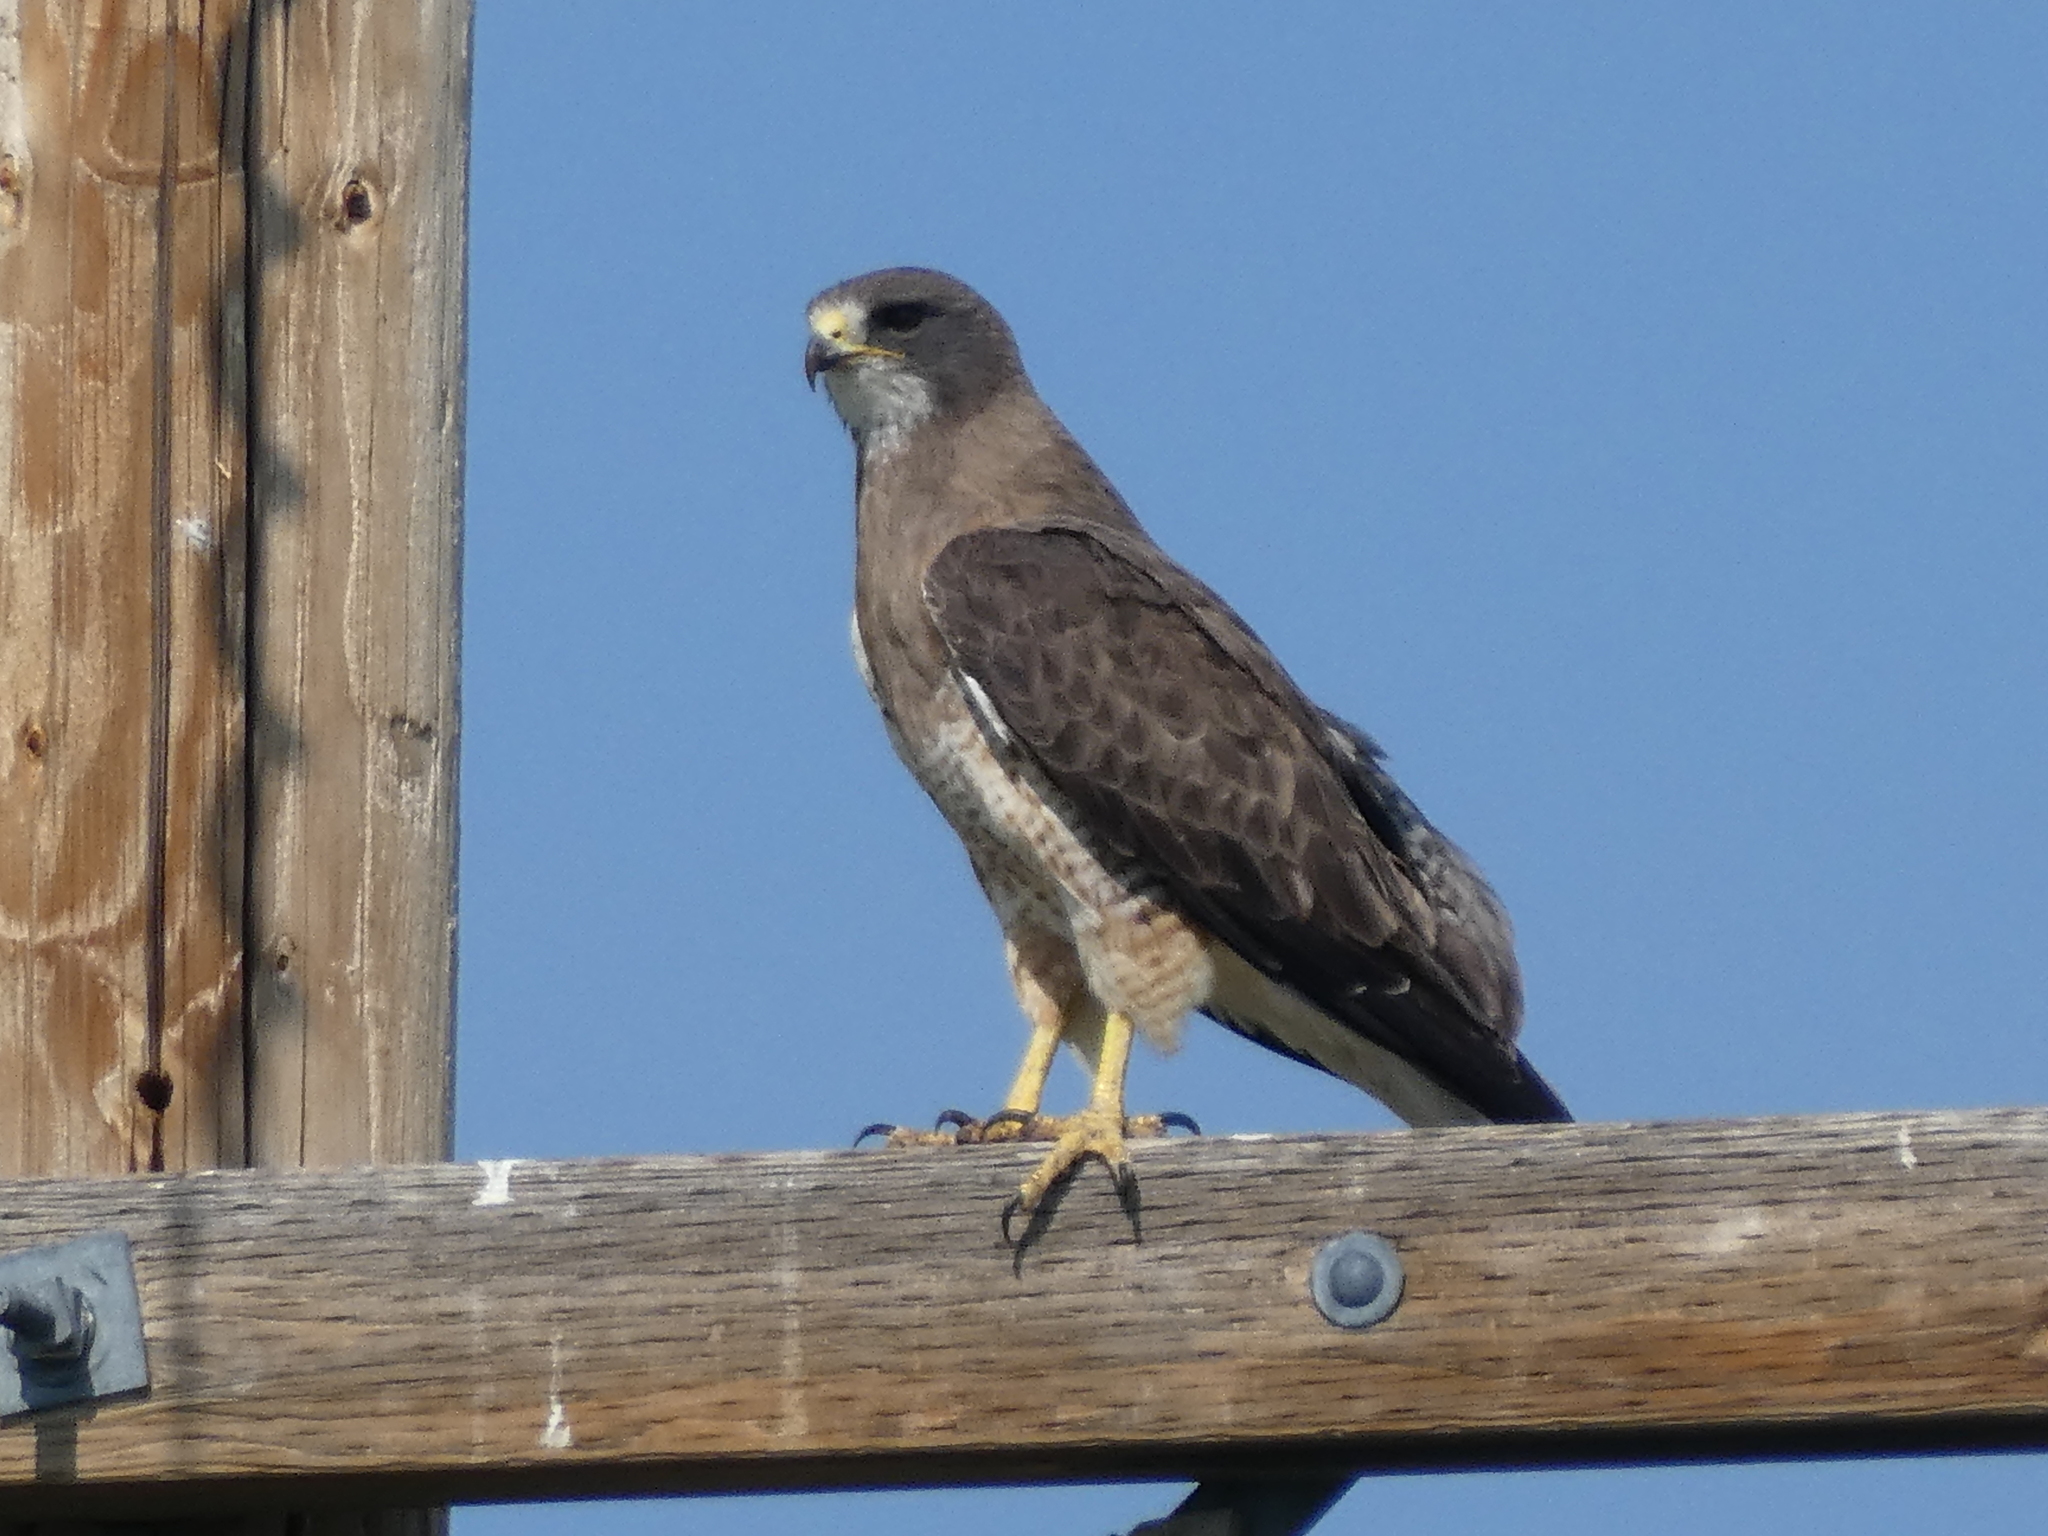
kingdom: Animalia
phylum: Chordata
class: Aves
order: Accipitriformes
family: Accipitridae
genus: Buteo
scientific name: Buteo swainsoni
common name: Swainson's hawk
